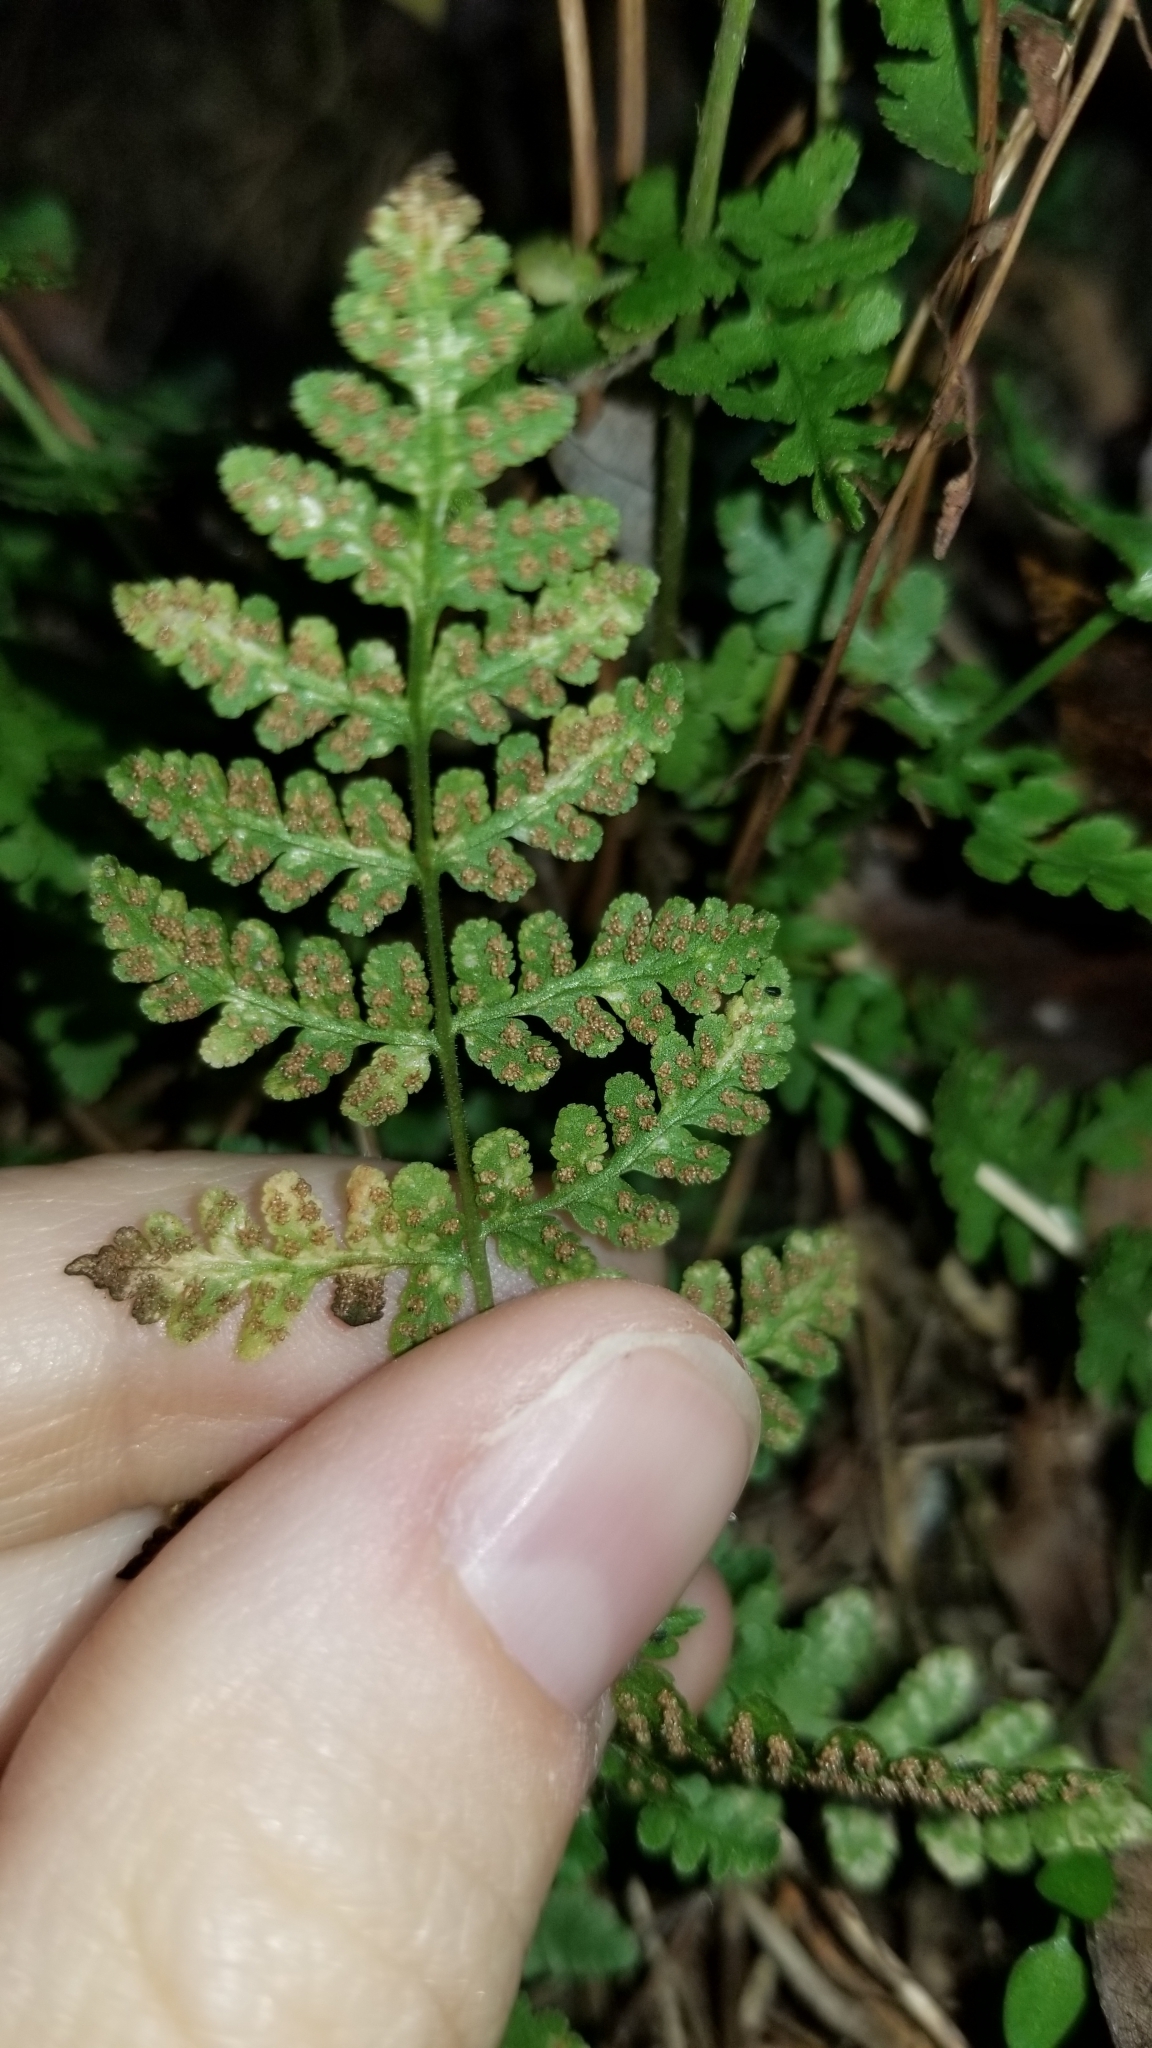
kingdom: Plantae
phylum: Tracheophyta
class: Polypodiopsida
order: Polypodiales
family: Woodsiaceae
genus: Physematium
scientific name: Physematium obtusum
